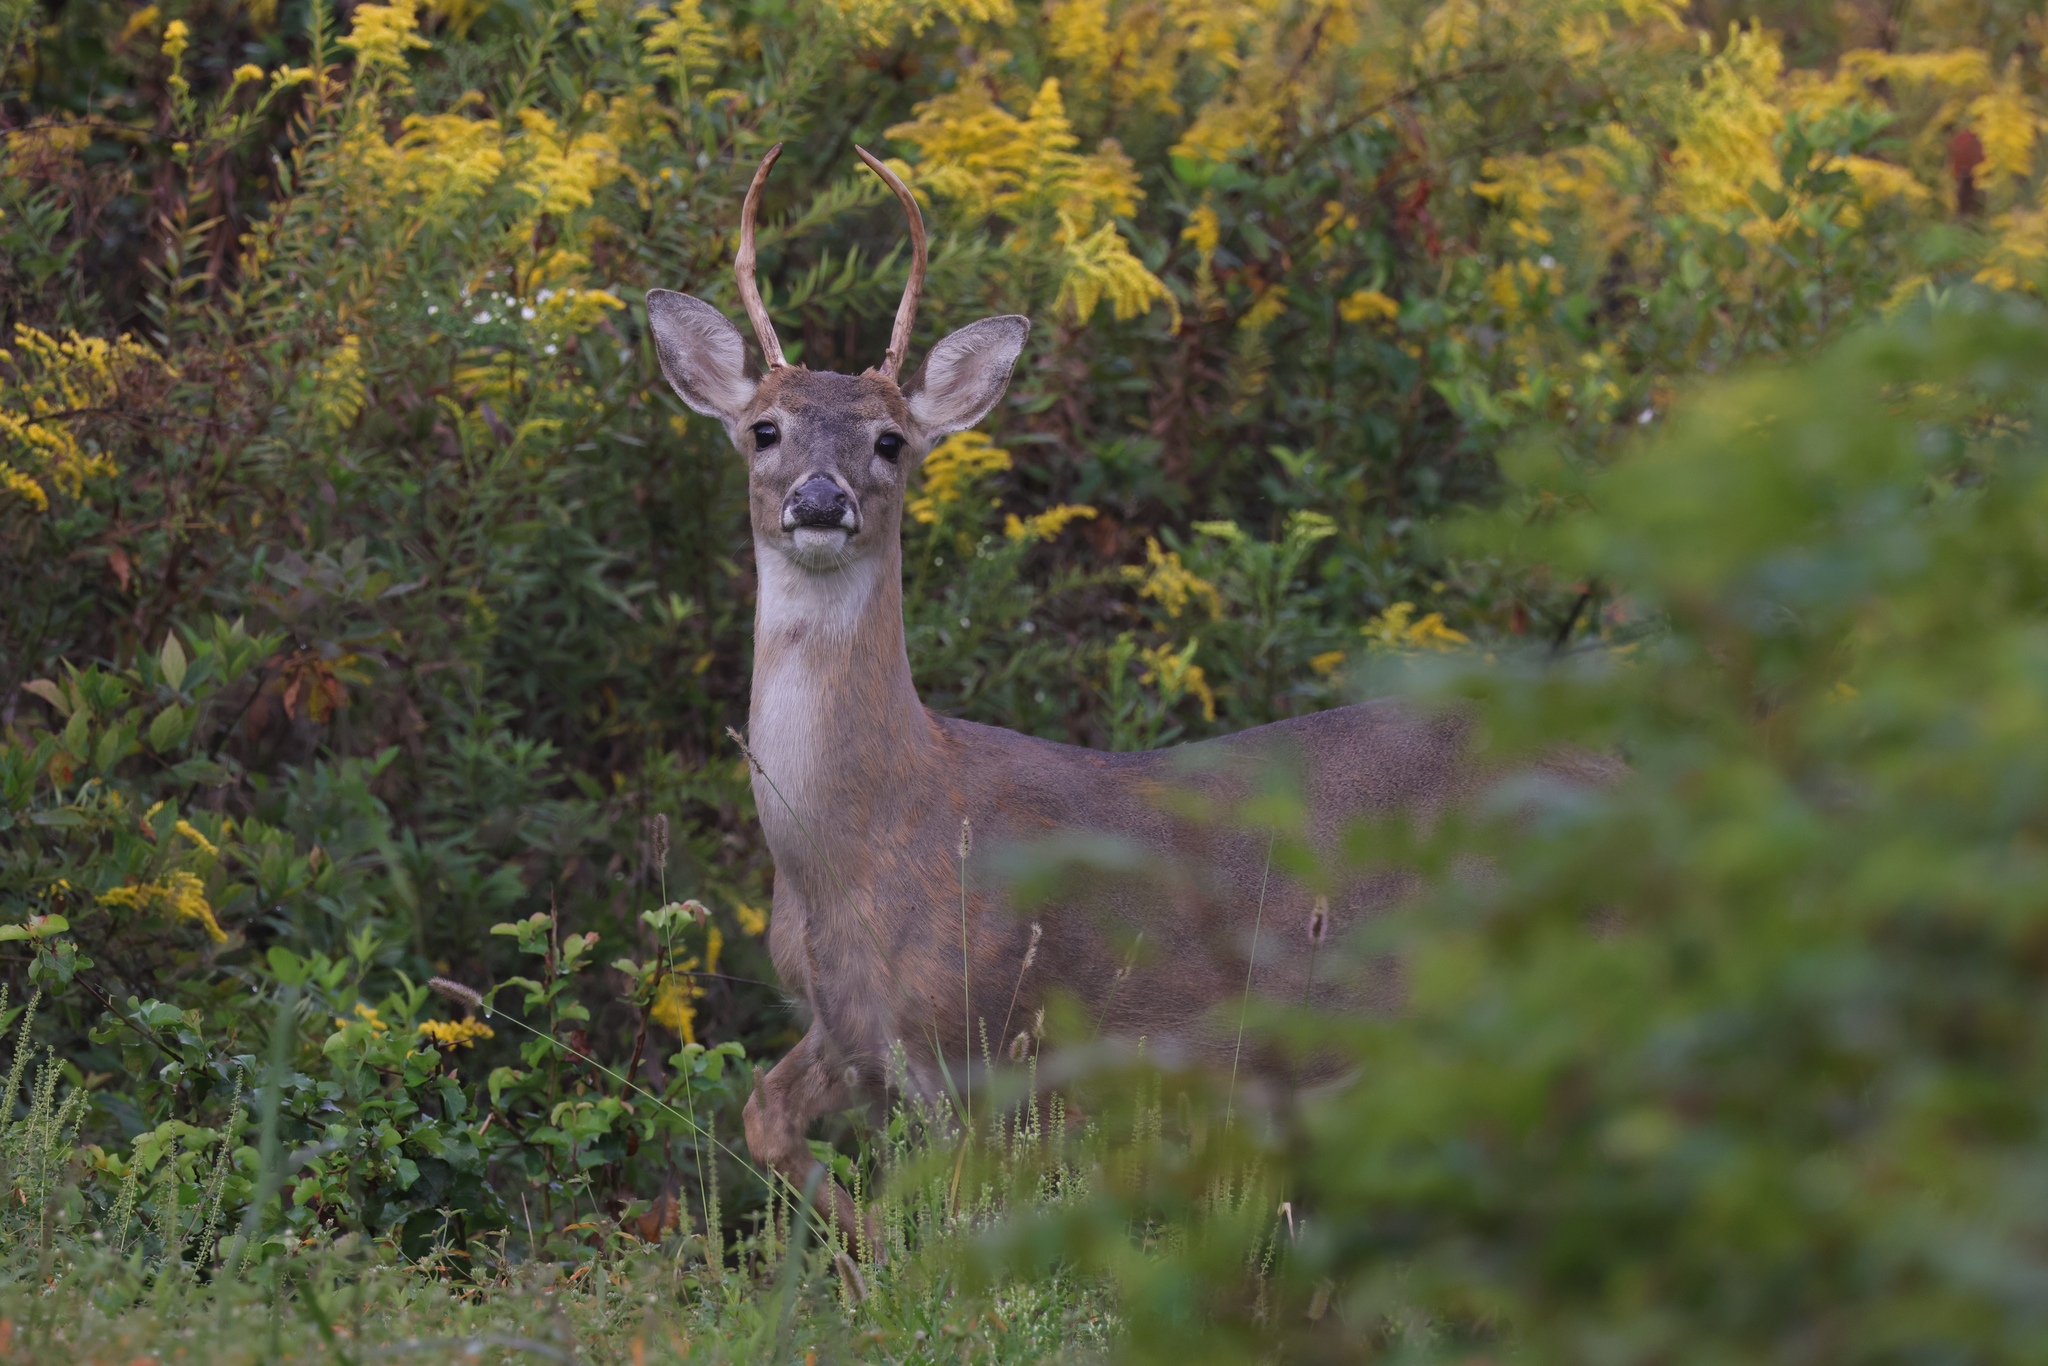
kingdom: Animalia
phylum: Chordata
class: Mammalia
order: Artiodactyla
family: Cervidae
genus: Odocoileus
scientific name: Odocoileus virginianus
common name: White-tailed deer
